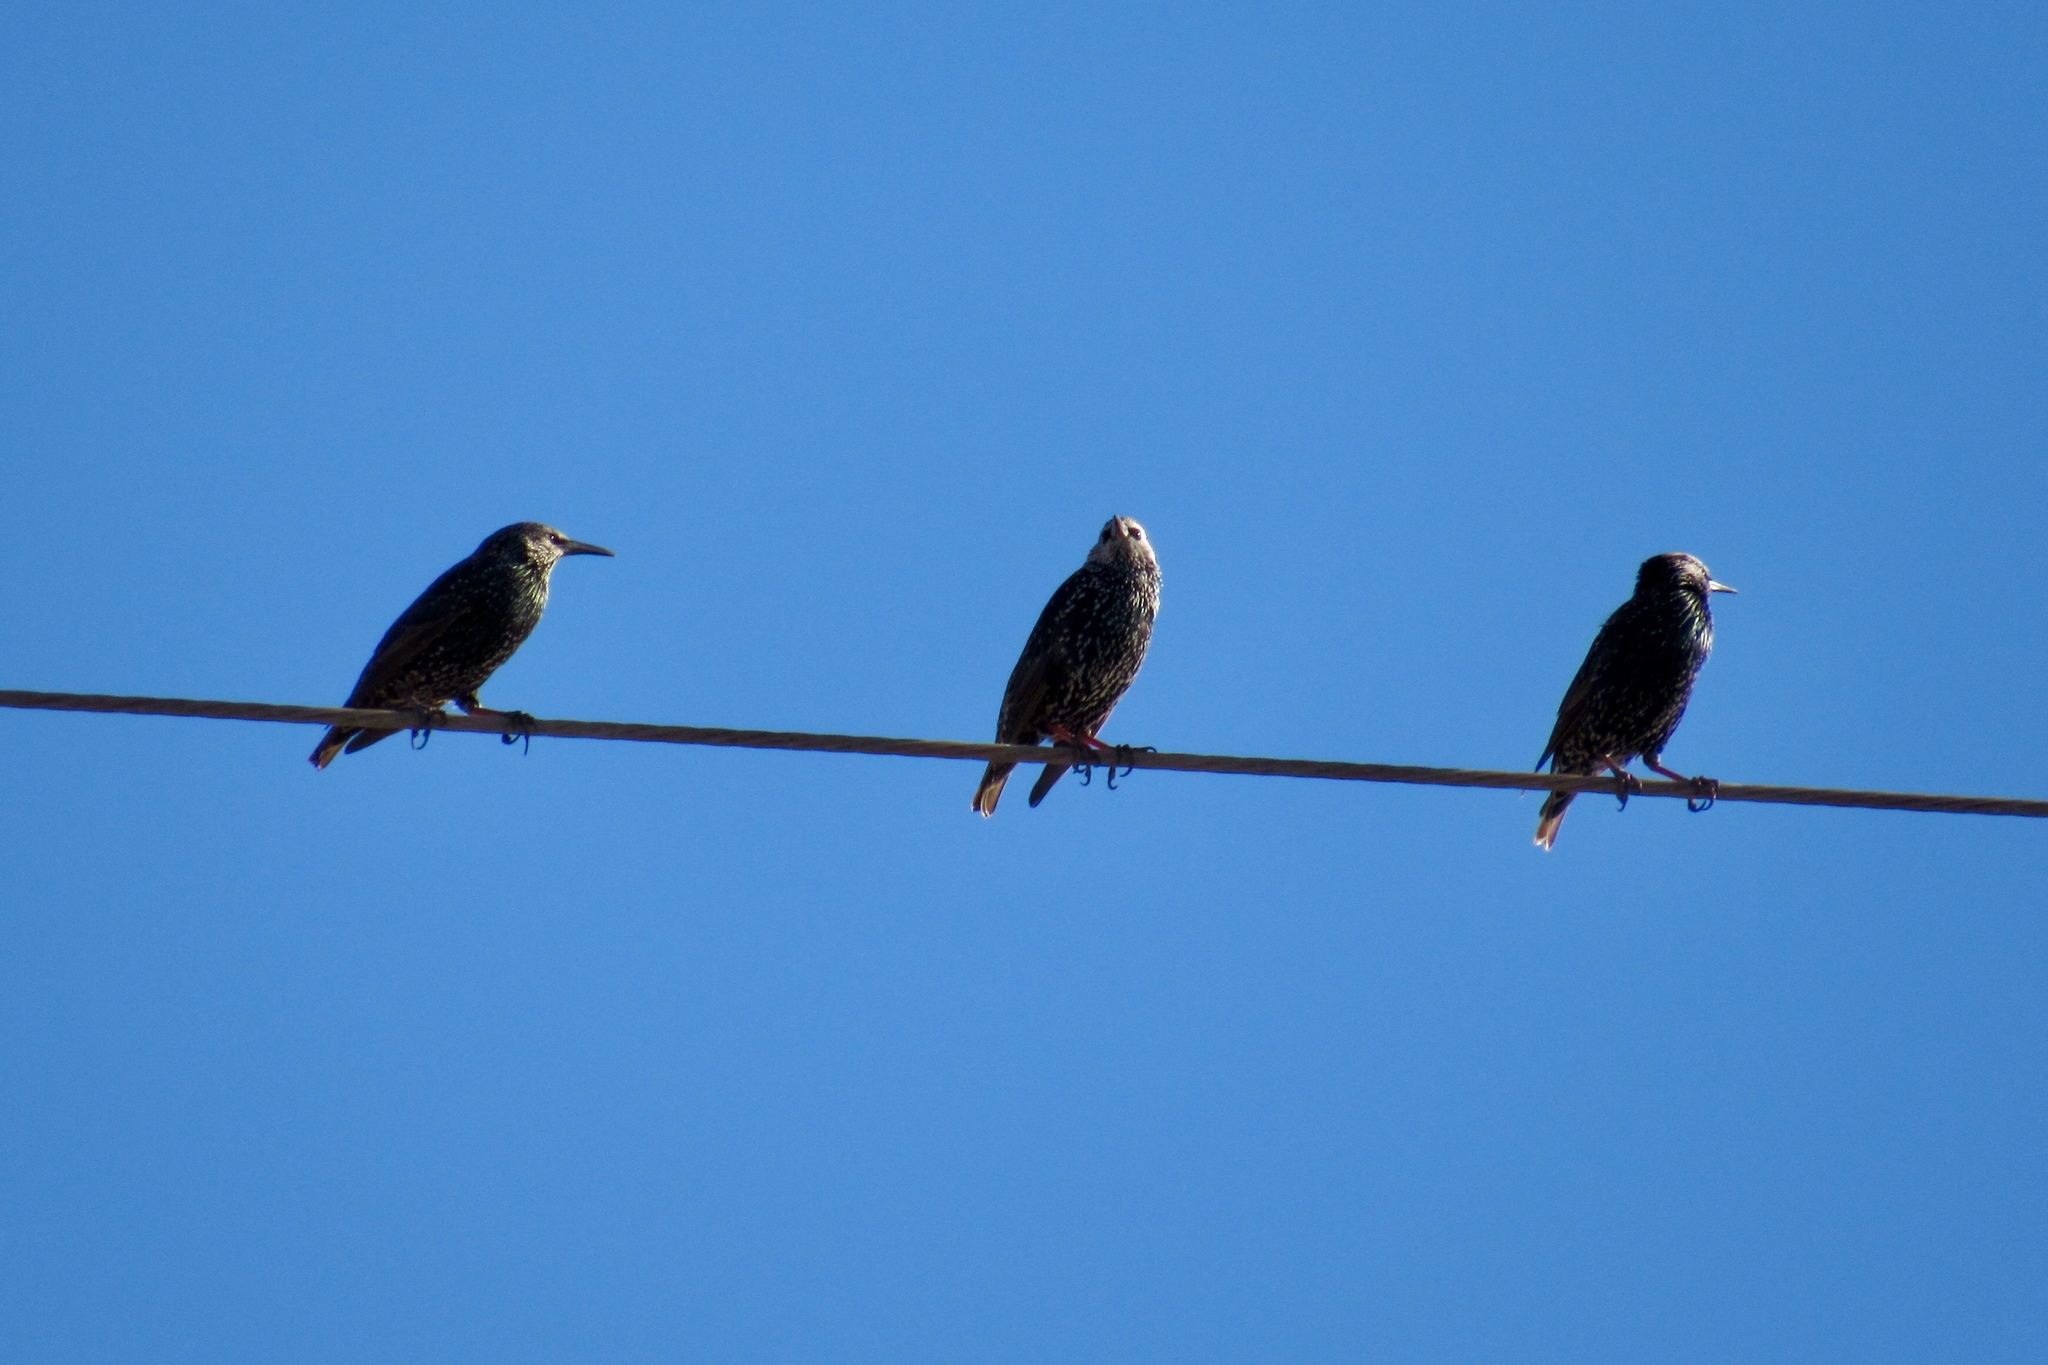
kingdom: Animalia
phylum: Chordata
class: Aves
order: Passeriformes
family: Sturnidae
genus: Sturnus
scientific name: Sturnus vulgaris
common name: Common starling
